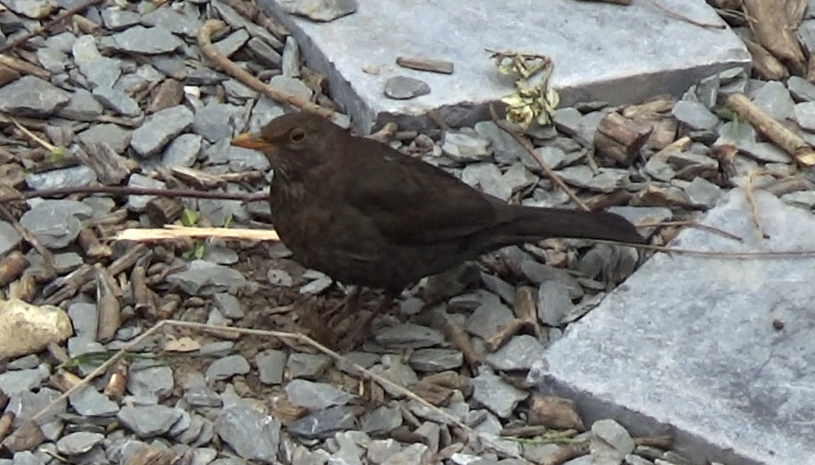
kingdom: Animalia
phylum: Chordata
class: Aves
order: Passeriformes
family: Turdidae
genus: Turdus
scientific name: Turdus merula
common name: Common blackbird
